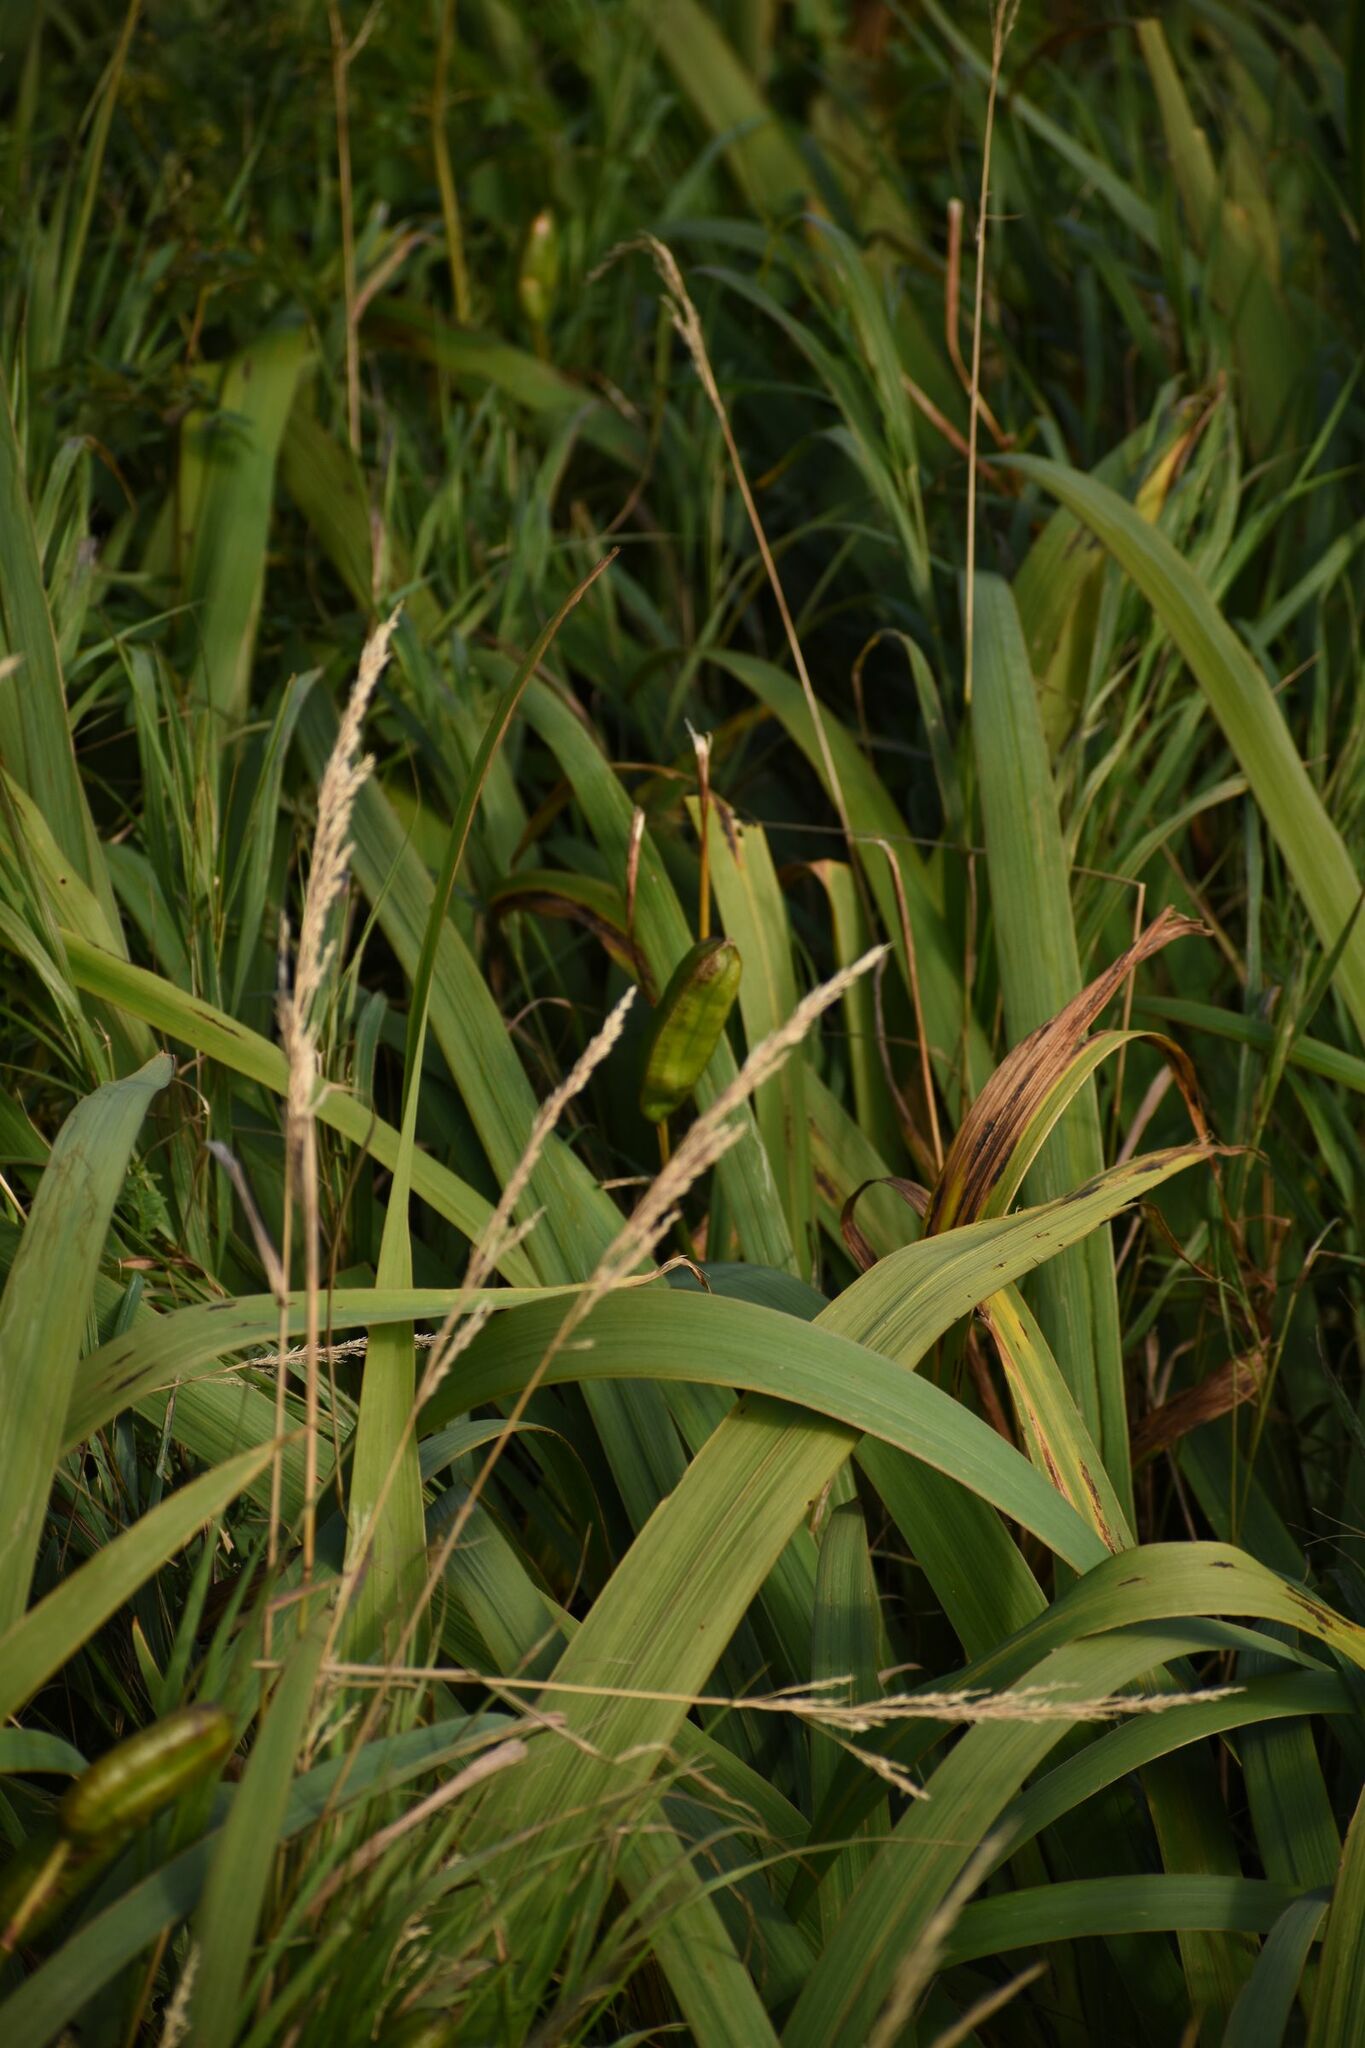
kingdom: Plantae
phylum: Tracheophyta
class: Liliopsida
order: Asparagales
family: Iridaceae
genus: Iris
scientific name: Iris versicolor
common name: Purple iris
